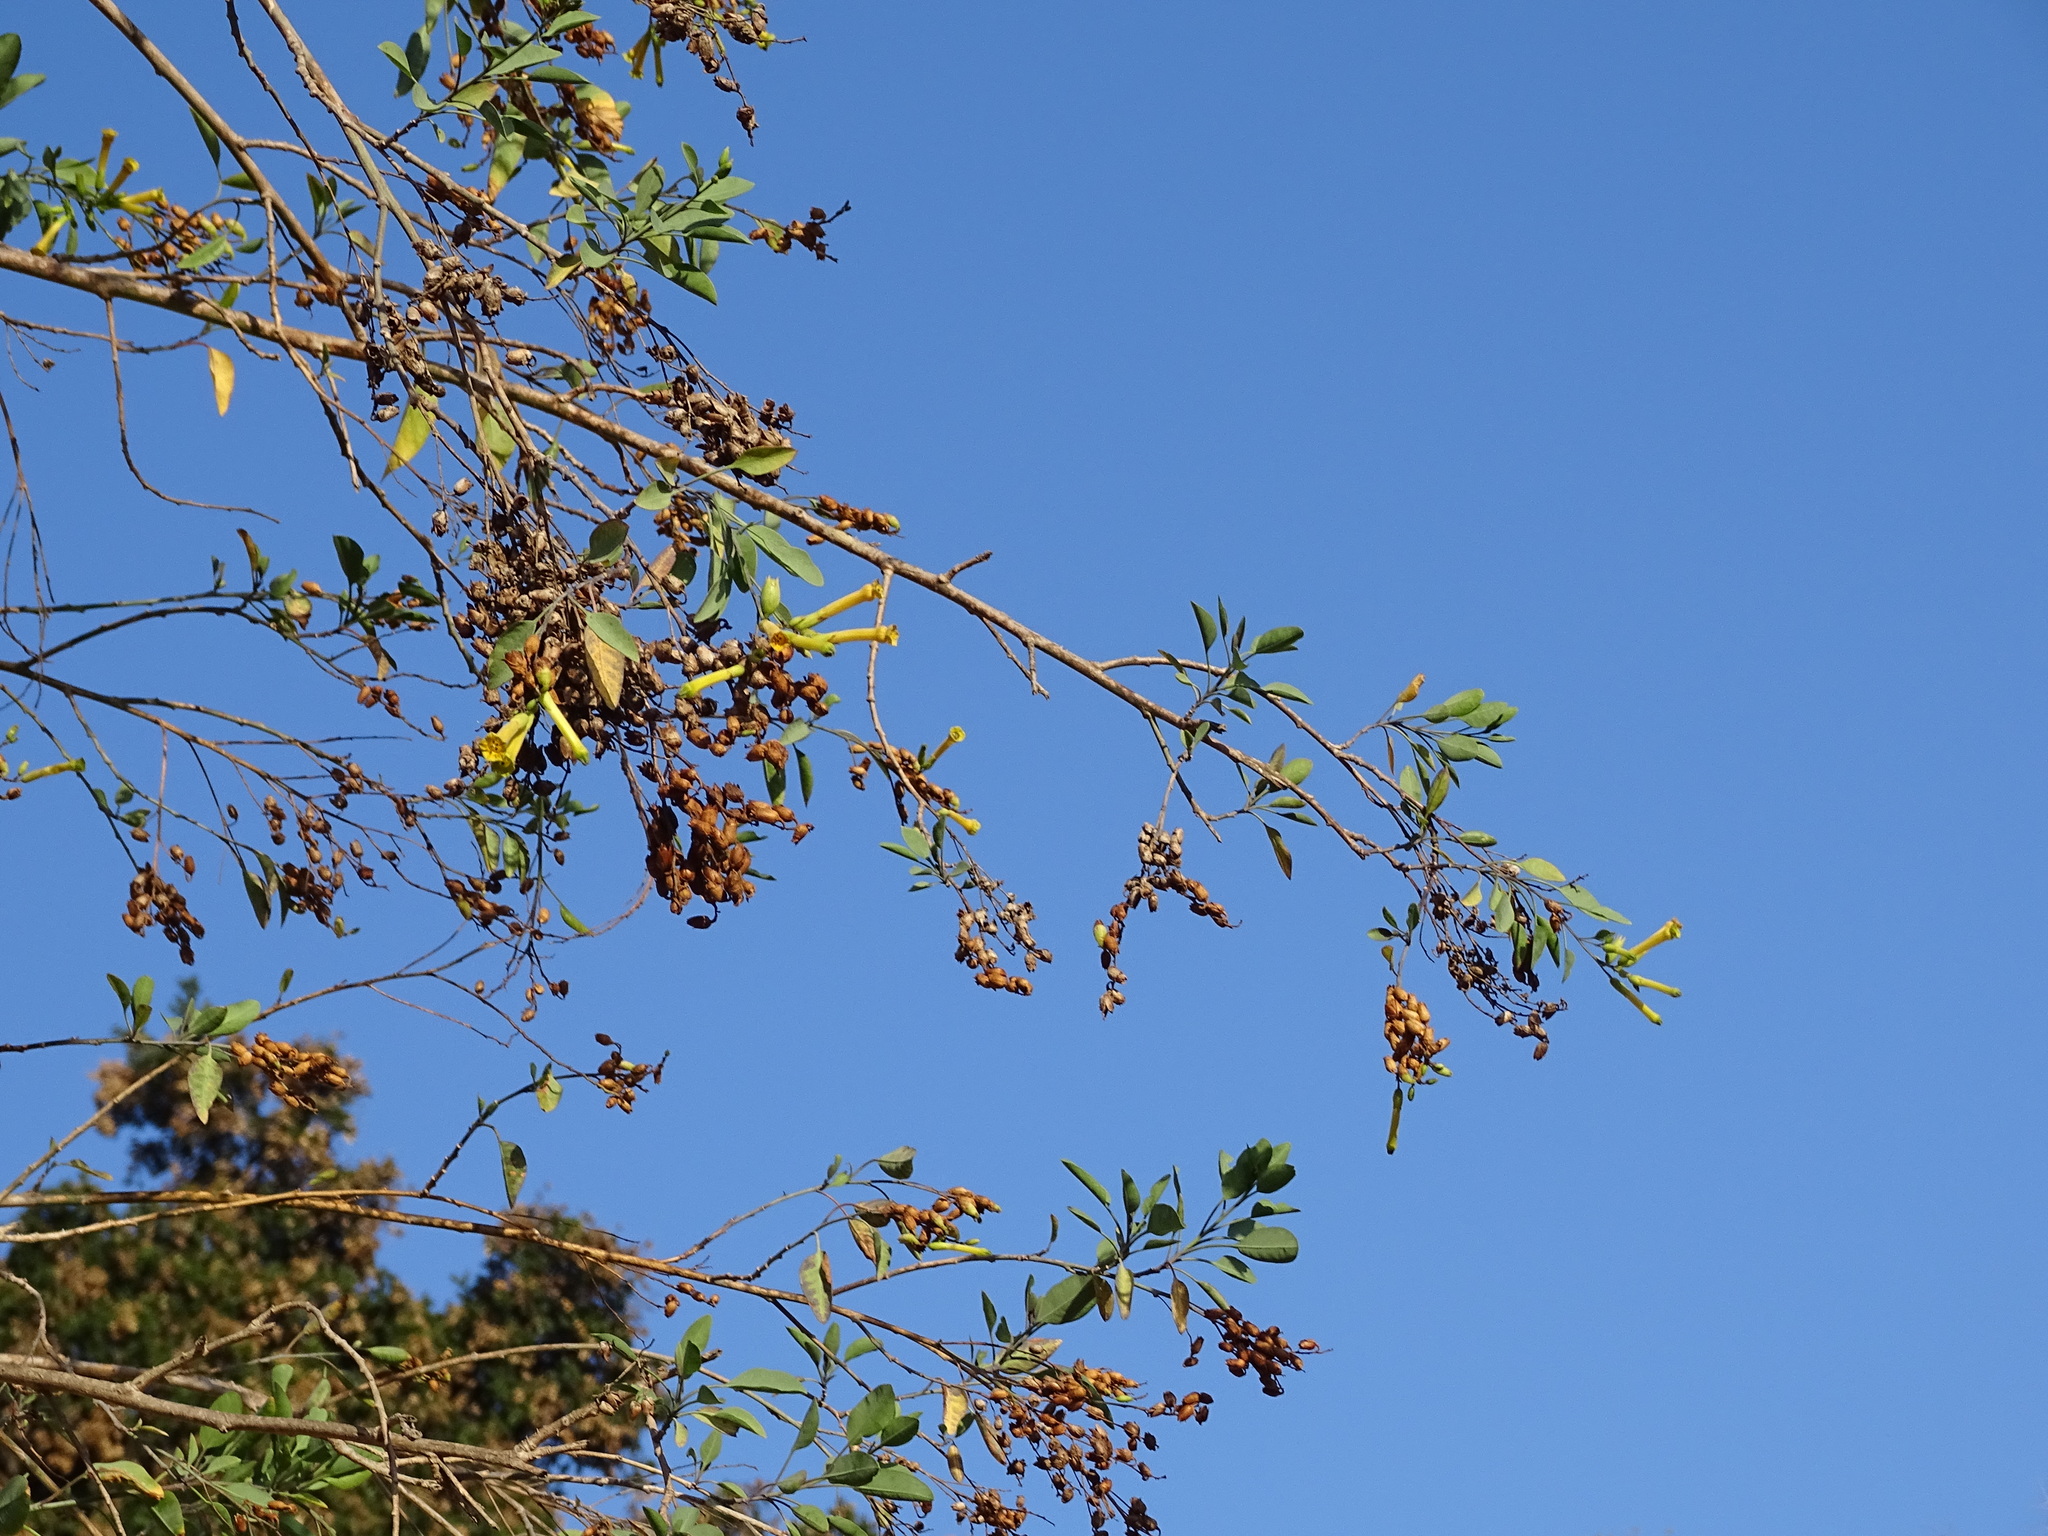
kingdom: Plantae
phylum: Tracheophyta
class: Magnoliopsida
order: Solanales
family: Solanaceae
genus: Nicotiana
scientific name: Nicotiana glauca
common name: Tree tobacco
